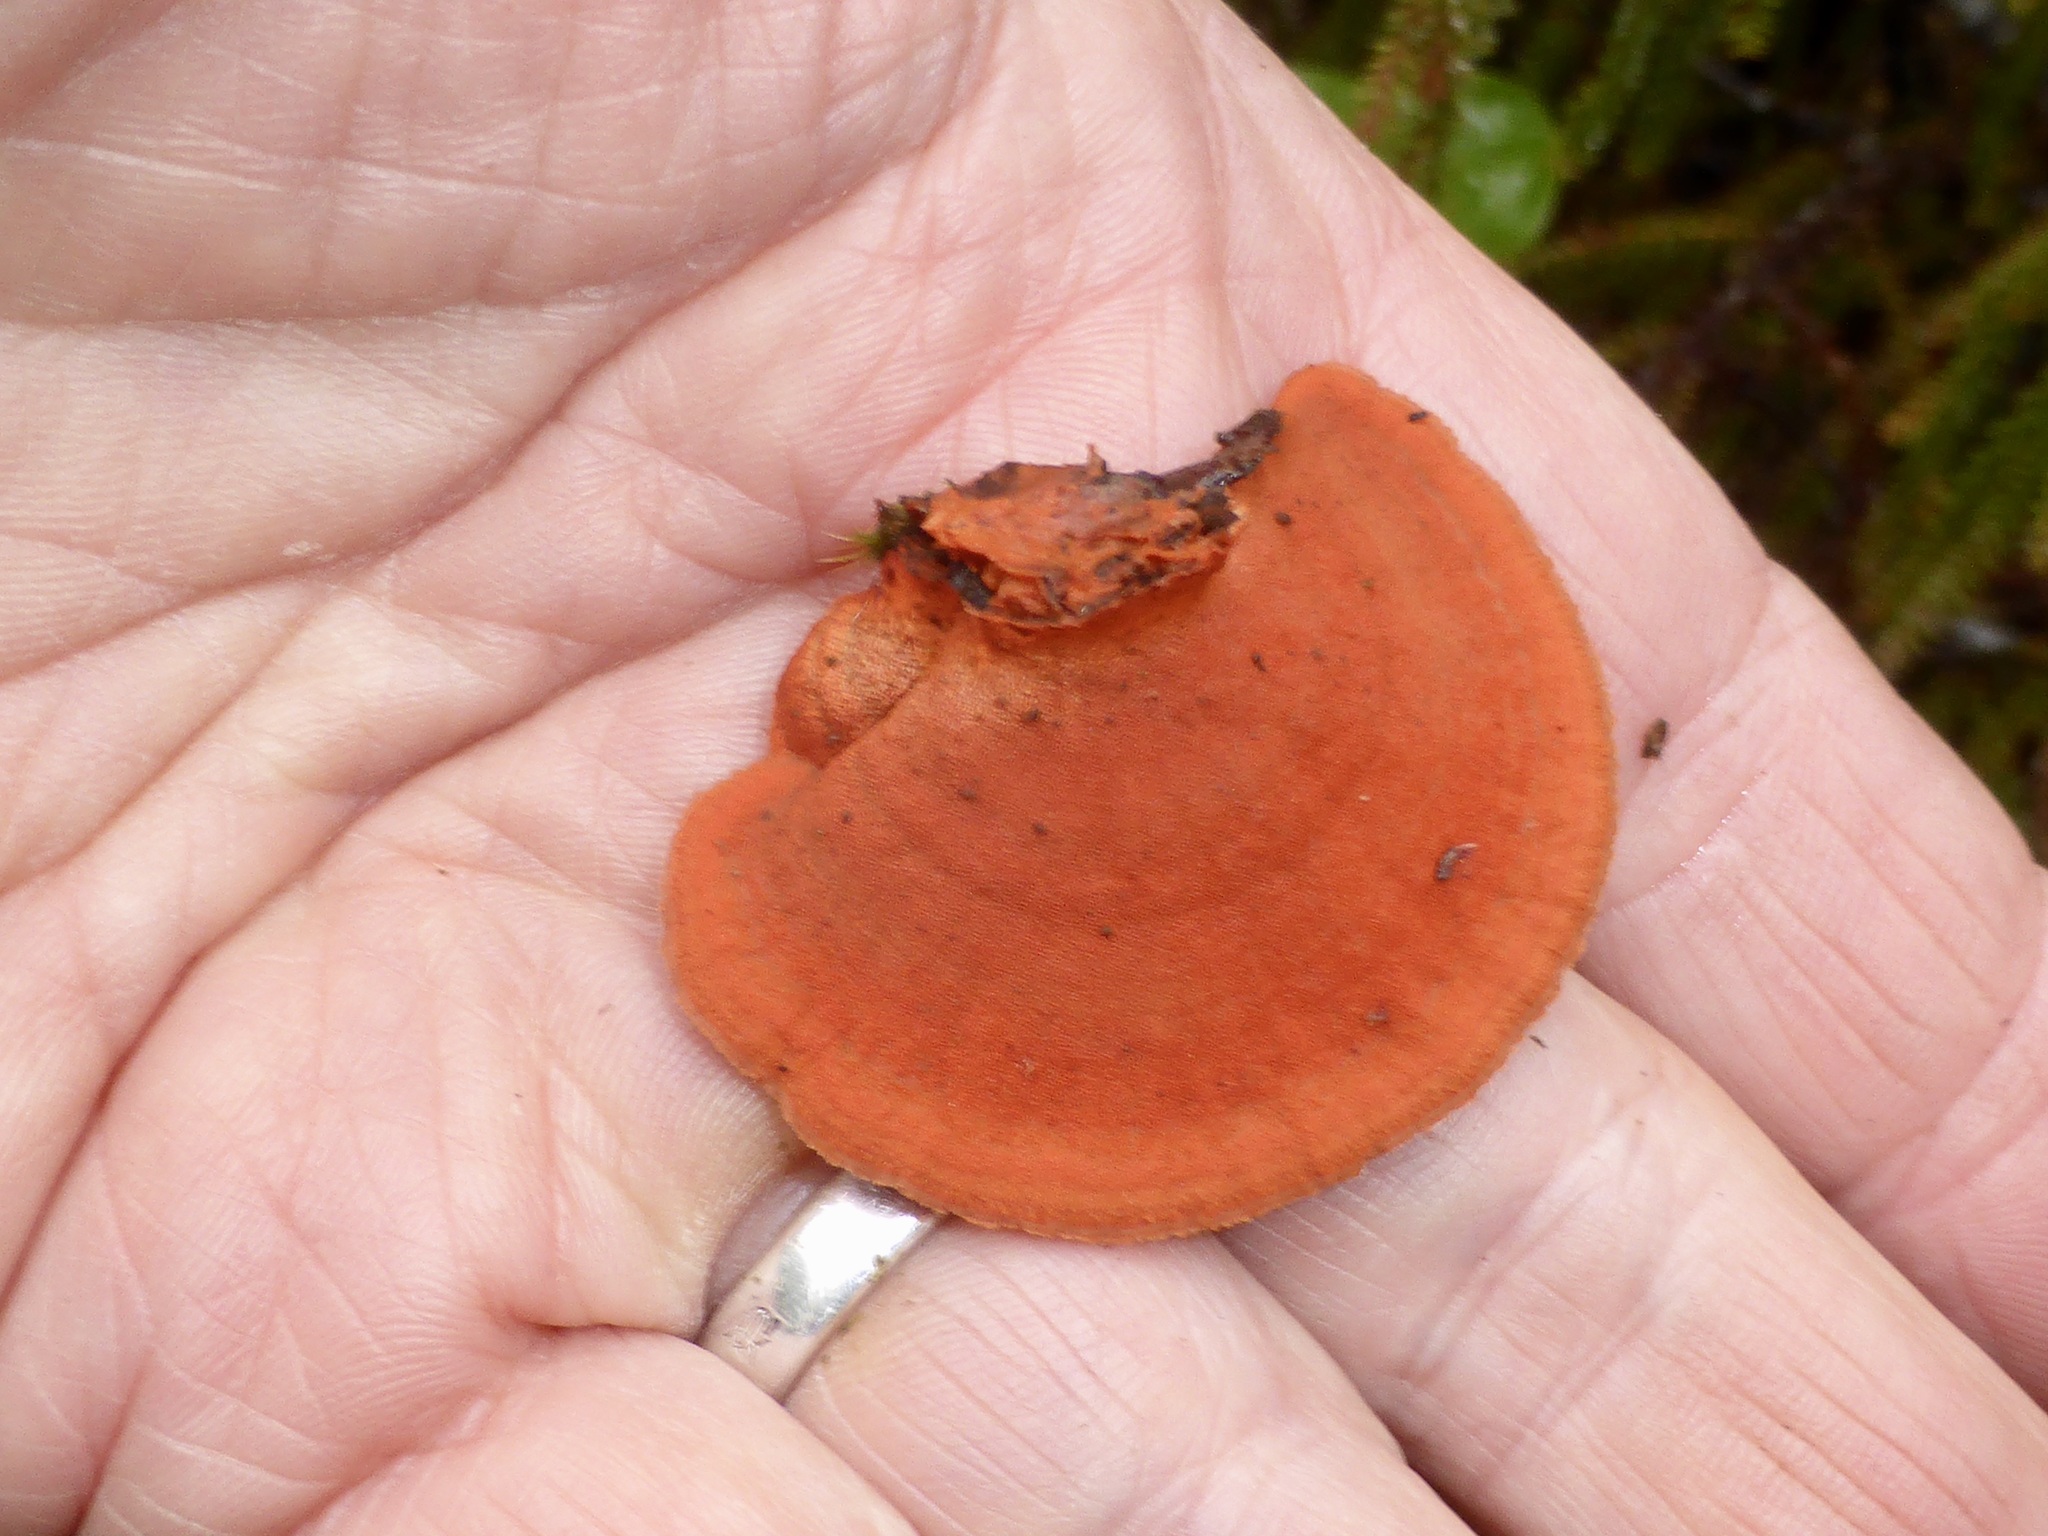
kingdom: Fungi
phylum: Basidiomycota
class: Agaricomycetes
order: Polyporales
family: Polyporaceae
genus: Trametes
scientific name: Trametes coccinea
